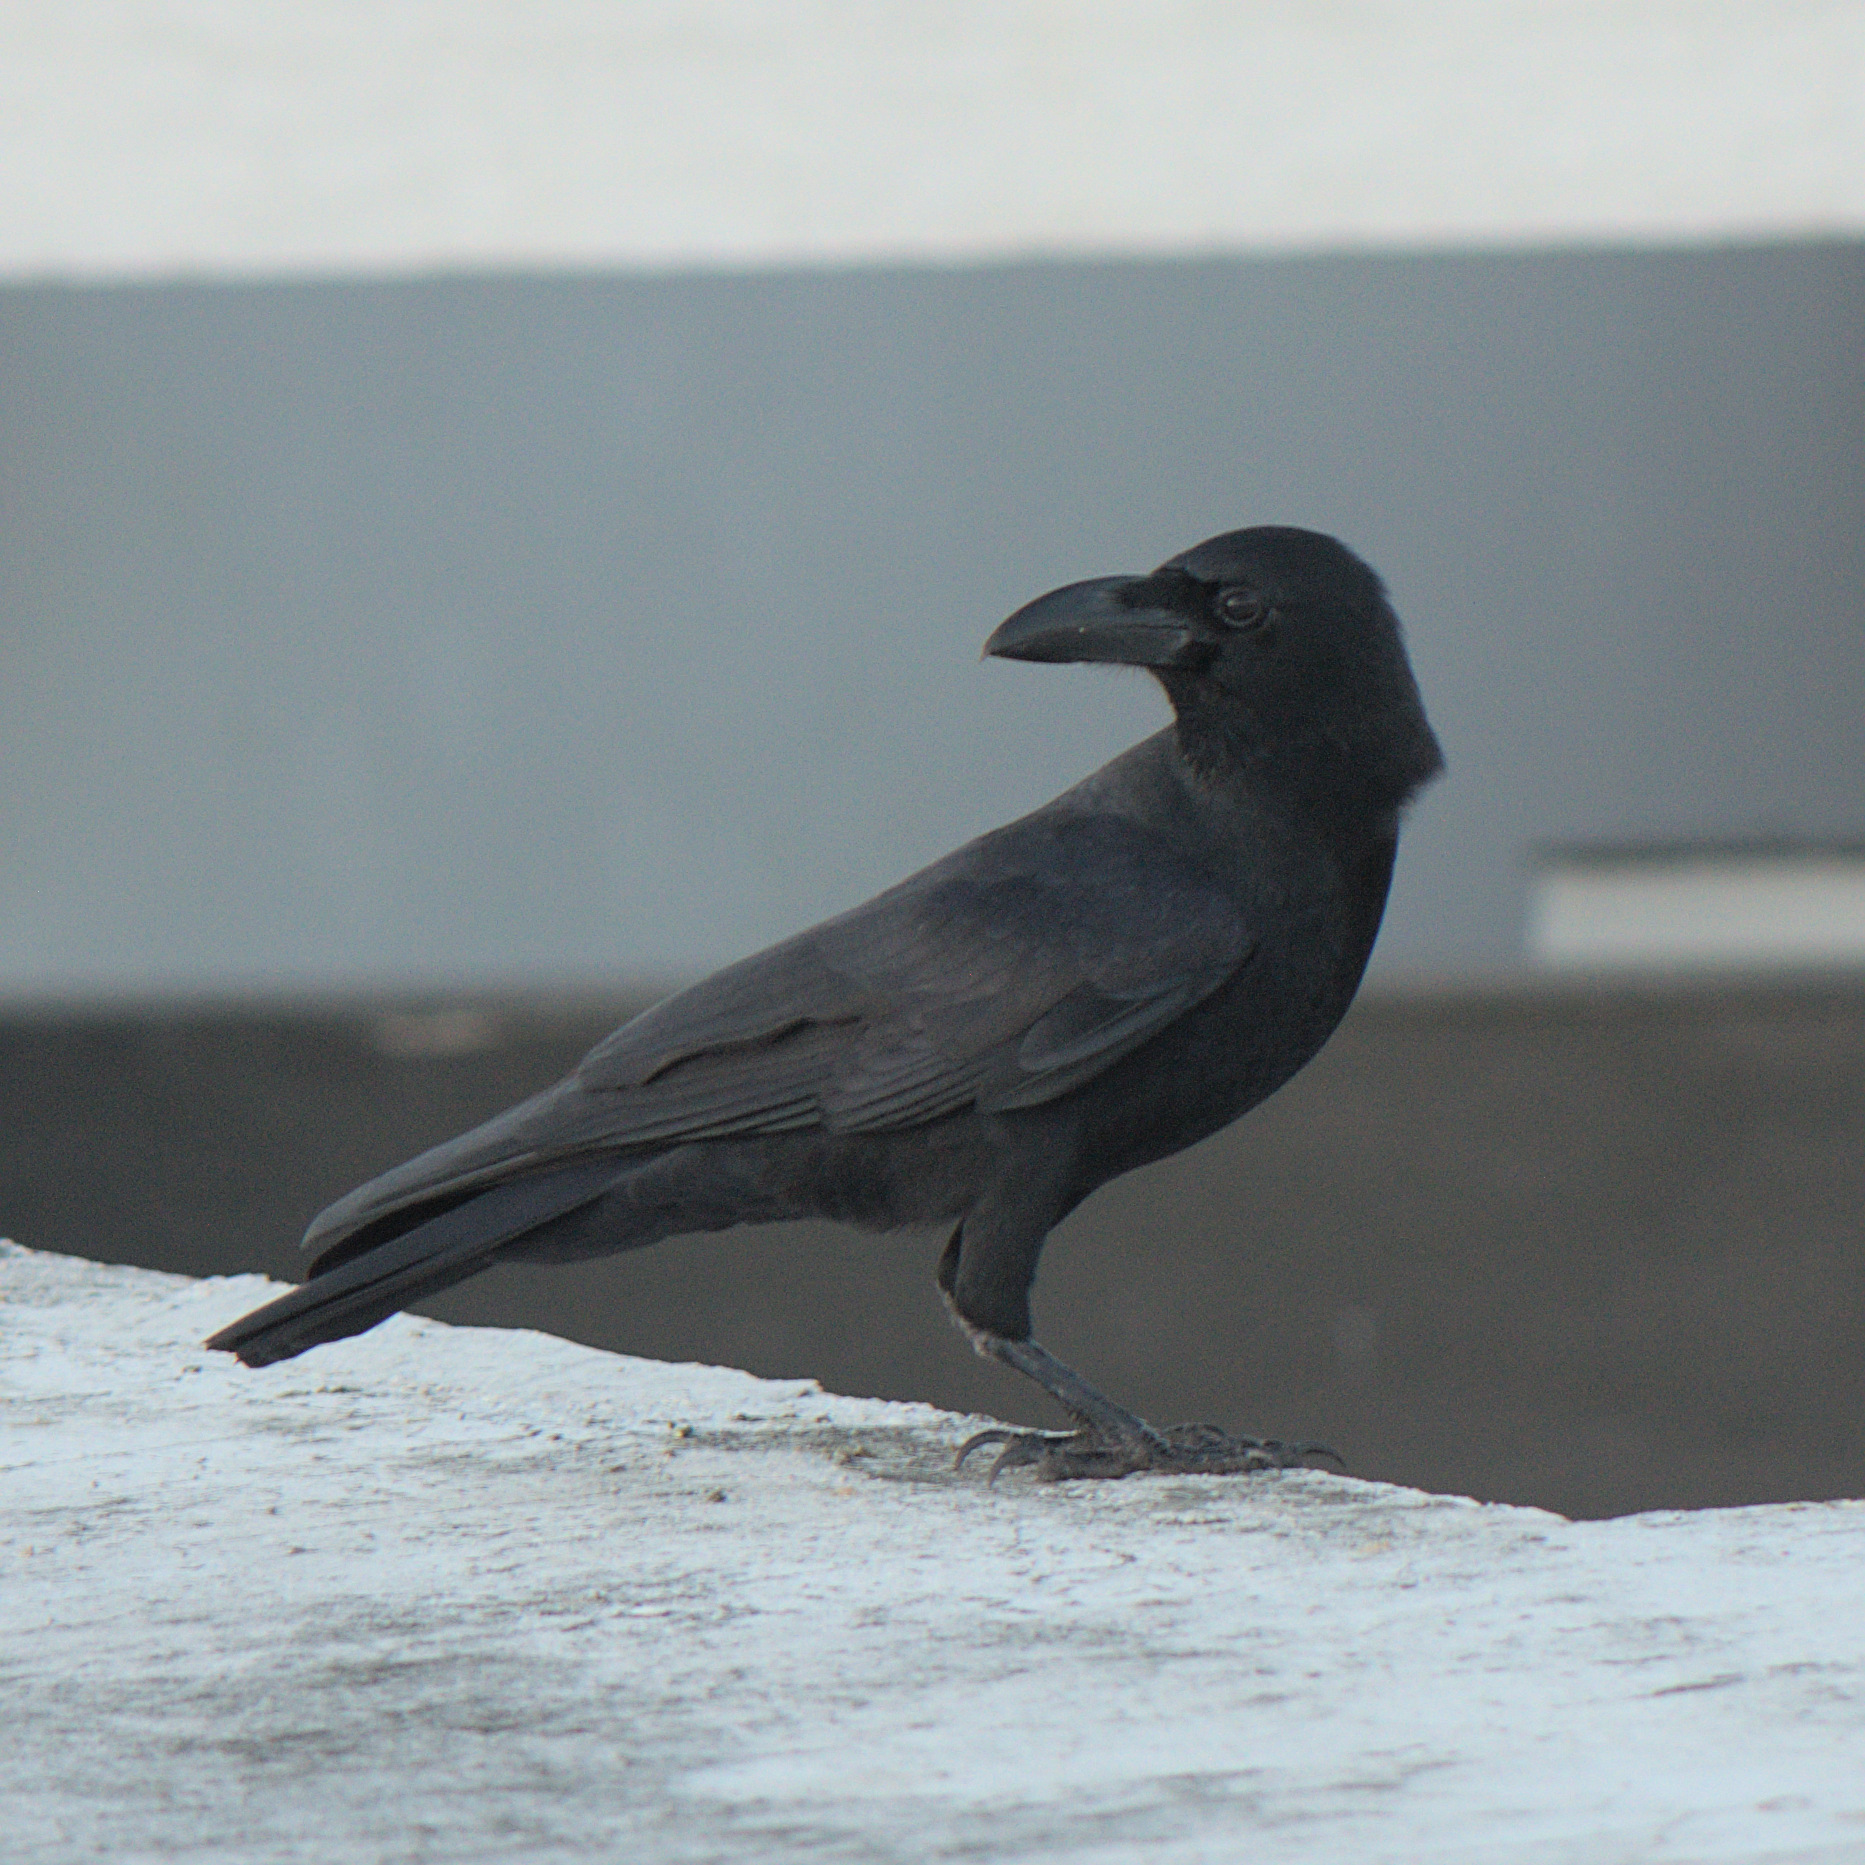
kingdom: Animalia
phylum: Chordata
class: Aves
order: Passeriformes
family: Corvidae
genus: Corvus
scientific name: Corvus macrorhynchos
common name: Large-billed crow
